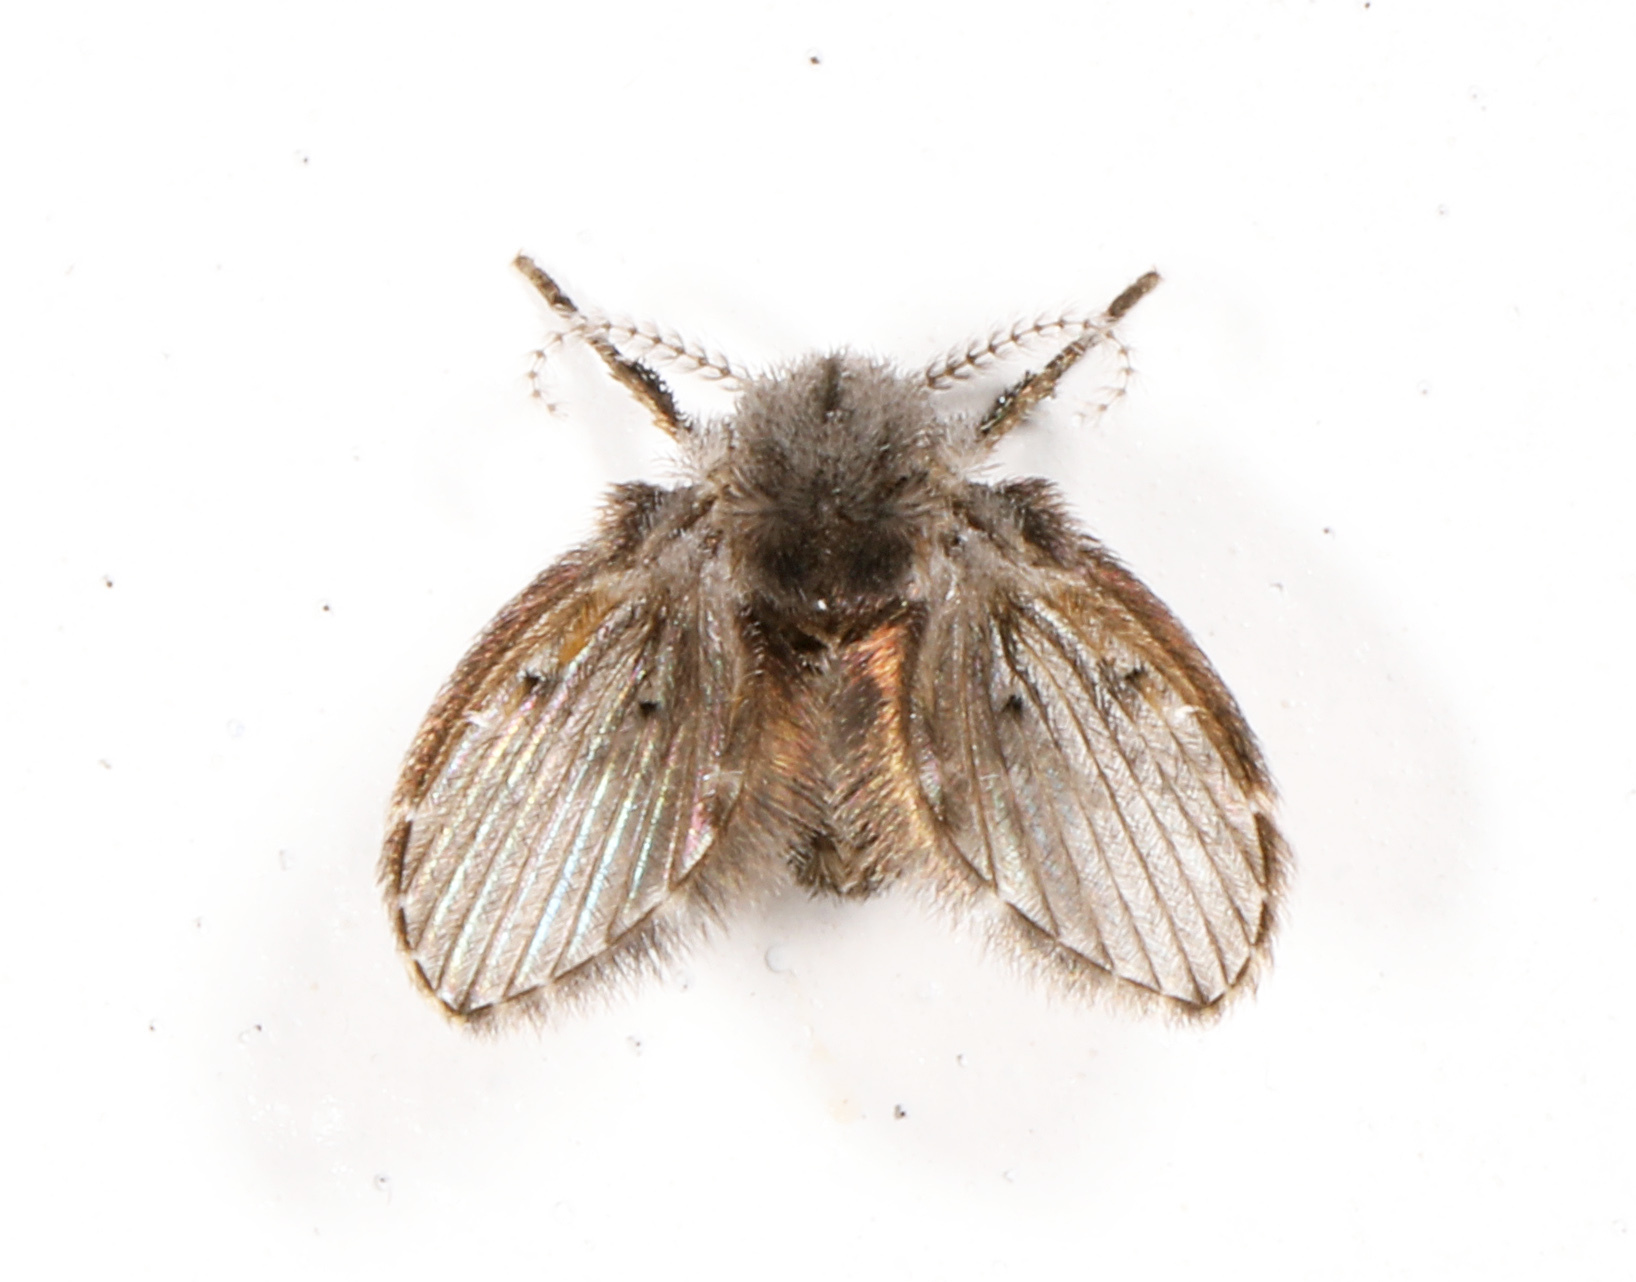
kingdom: Animalia
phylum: Arthropoda
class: Insecta
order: Diptera
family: Psychodidae
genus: Clogmia
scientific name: Clogmia albipunctatus
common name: White-spotted moth fly
